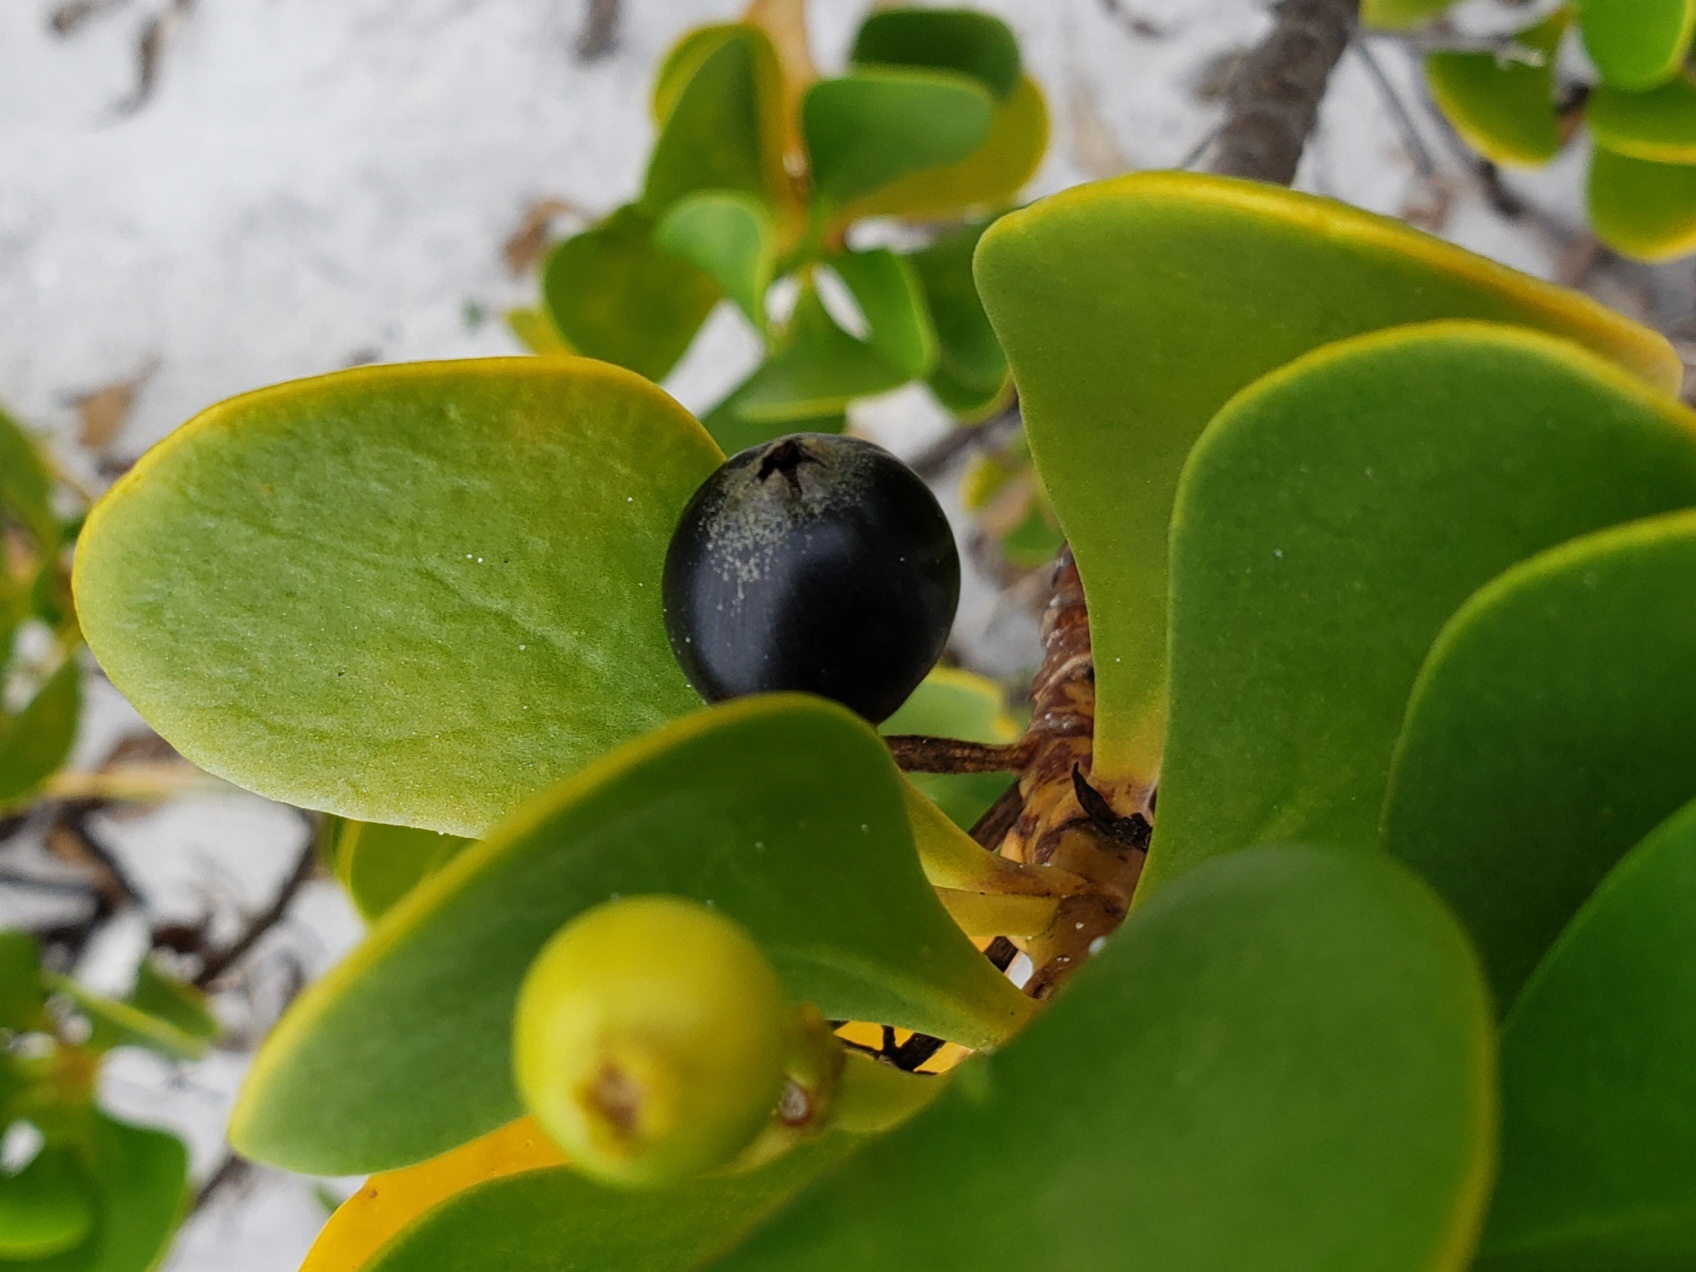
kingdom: Plantae
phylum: Tracheophyta
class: Magnoliopsida
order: Asterales
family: Goodeniaceae
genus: Scaevola
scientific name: Scaevola plumieri
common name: Gull feed
